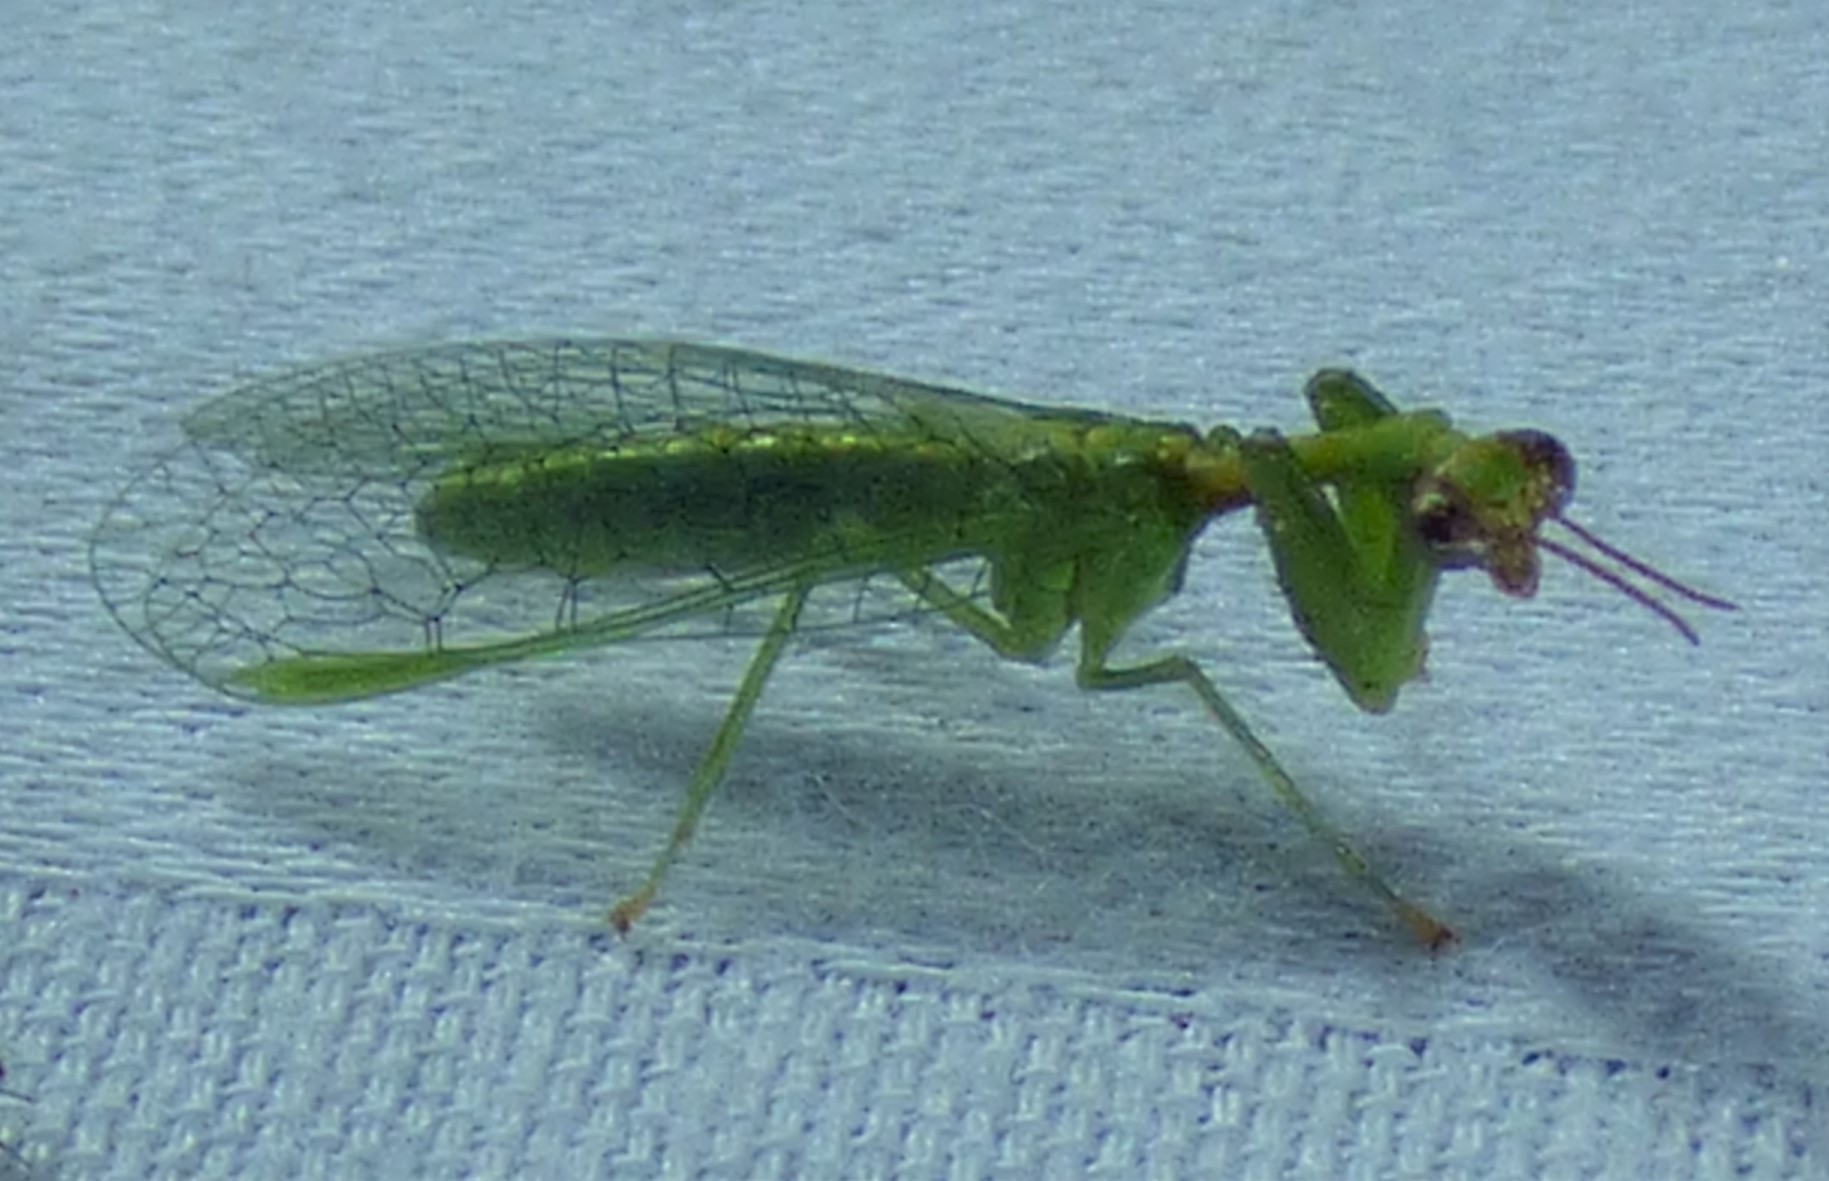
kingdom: Animalia
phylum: Arthropoda
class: Insecta
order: Neuroptera
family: Mantispidae
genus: Zeugomantispa
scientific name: Zeugomantispa minuta
